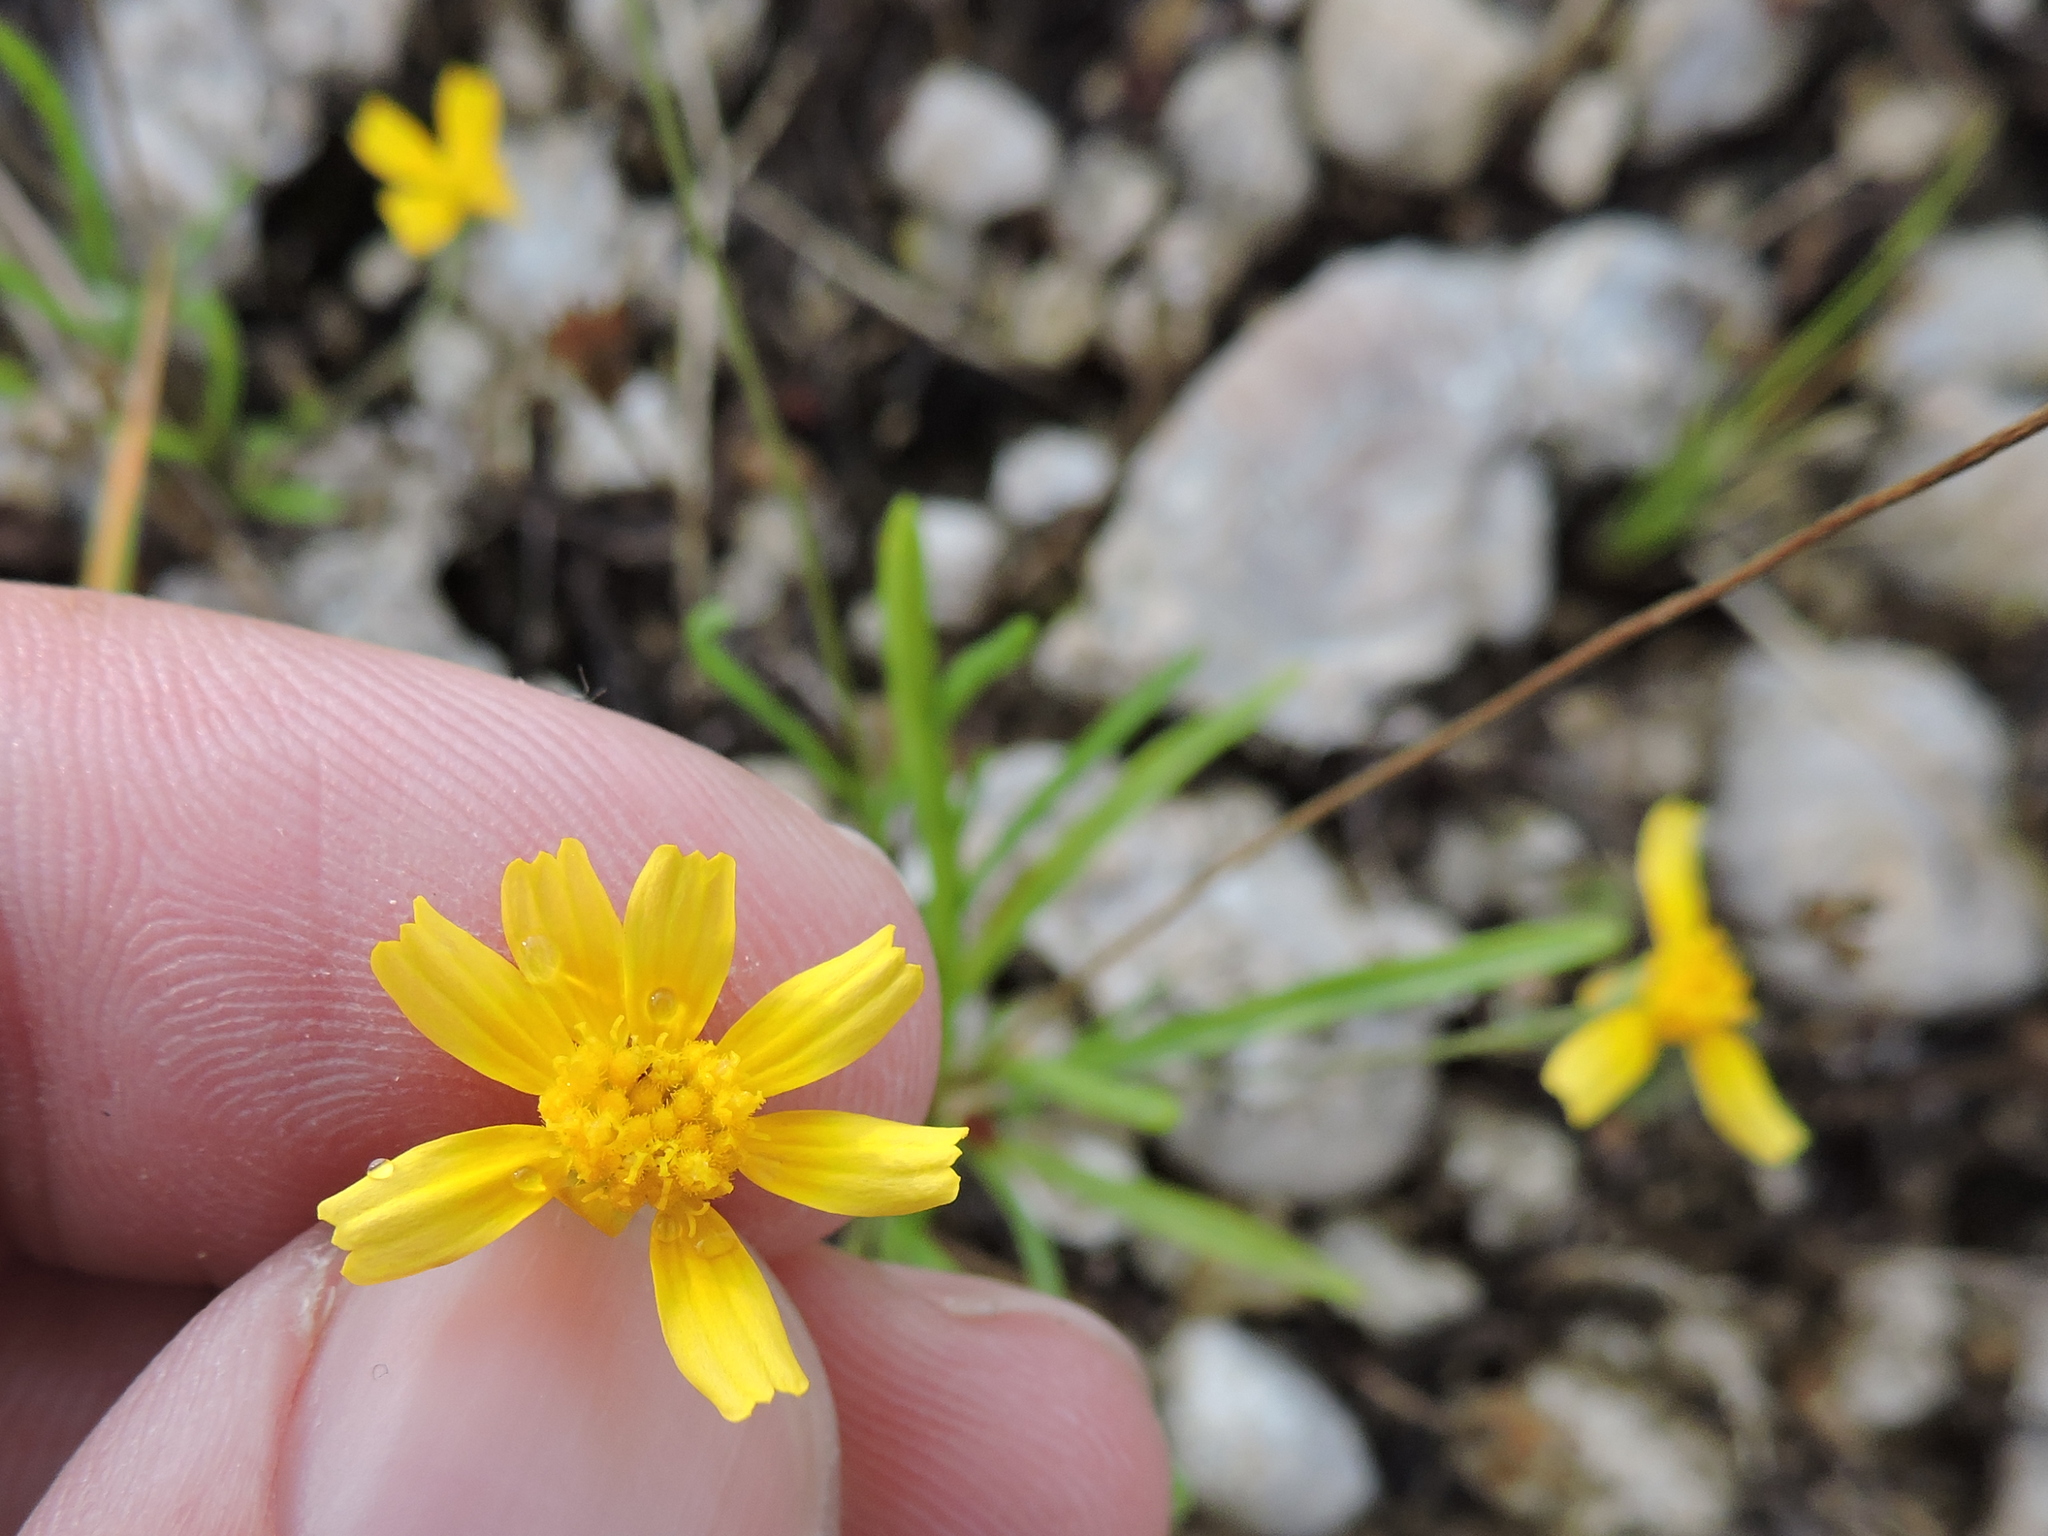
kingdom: Plantae
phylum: Tracheophyta
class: Magnoliopsida
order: Asterales
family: Asteraceae
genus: Tetraneuris
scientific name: Tetraneuris linearifolia
